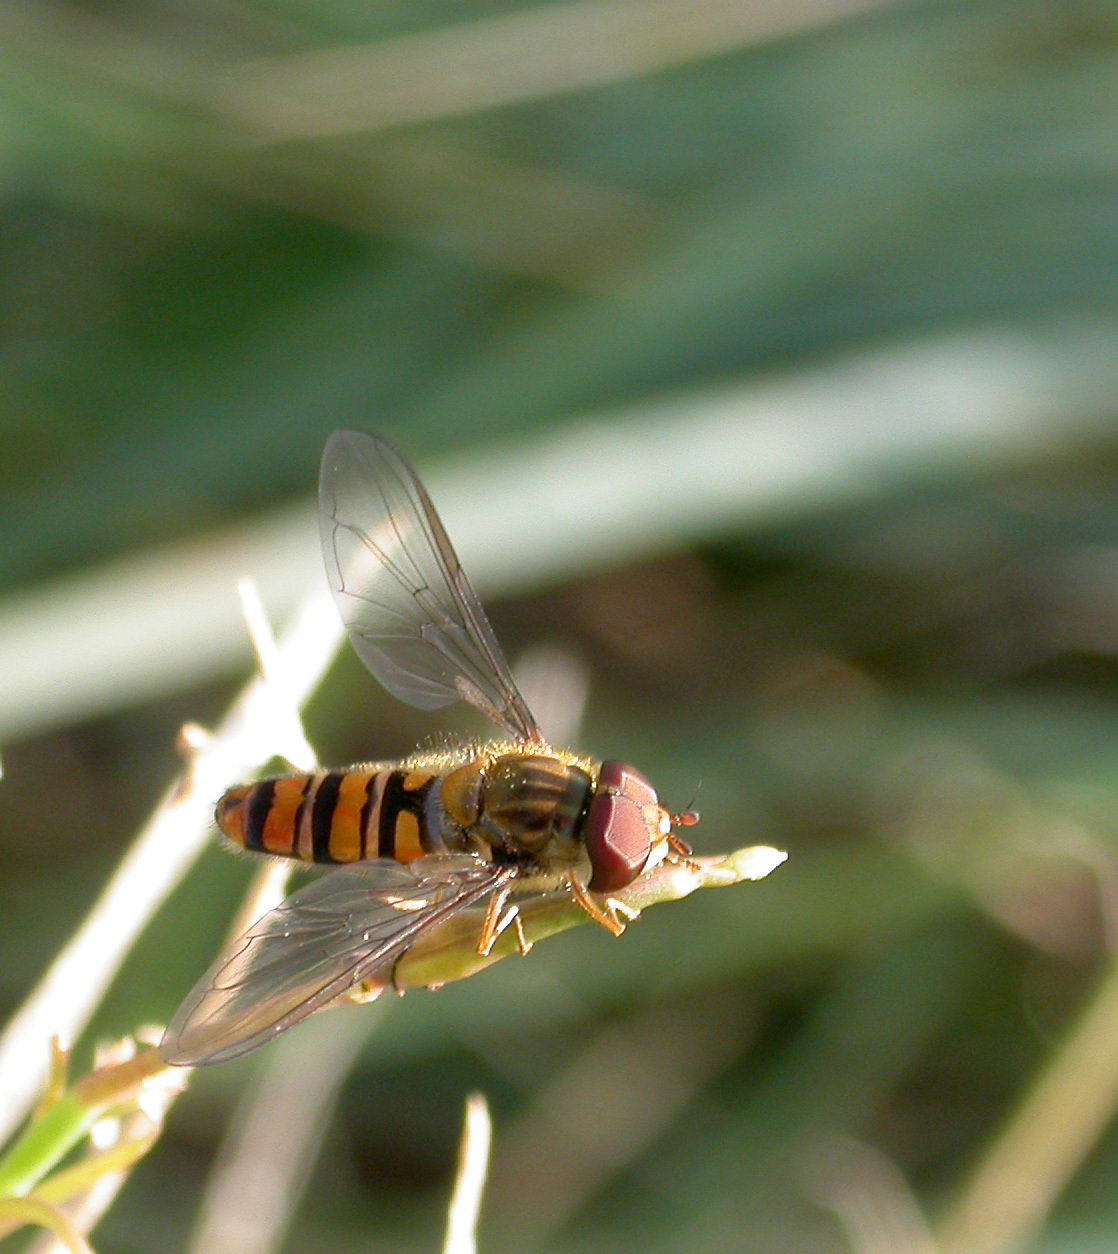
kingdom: Animalia
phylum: Arthropoda
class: Insecta
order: Diptera
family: Syrphidae
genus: Episyrphus
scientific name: Episyrphus balteatus
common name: Marmalade hoverfly
